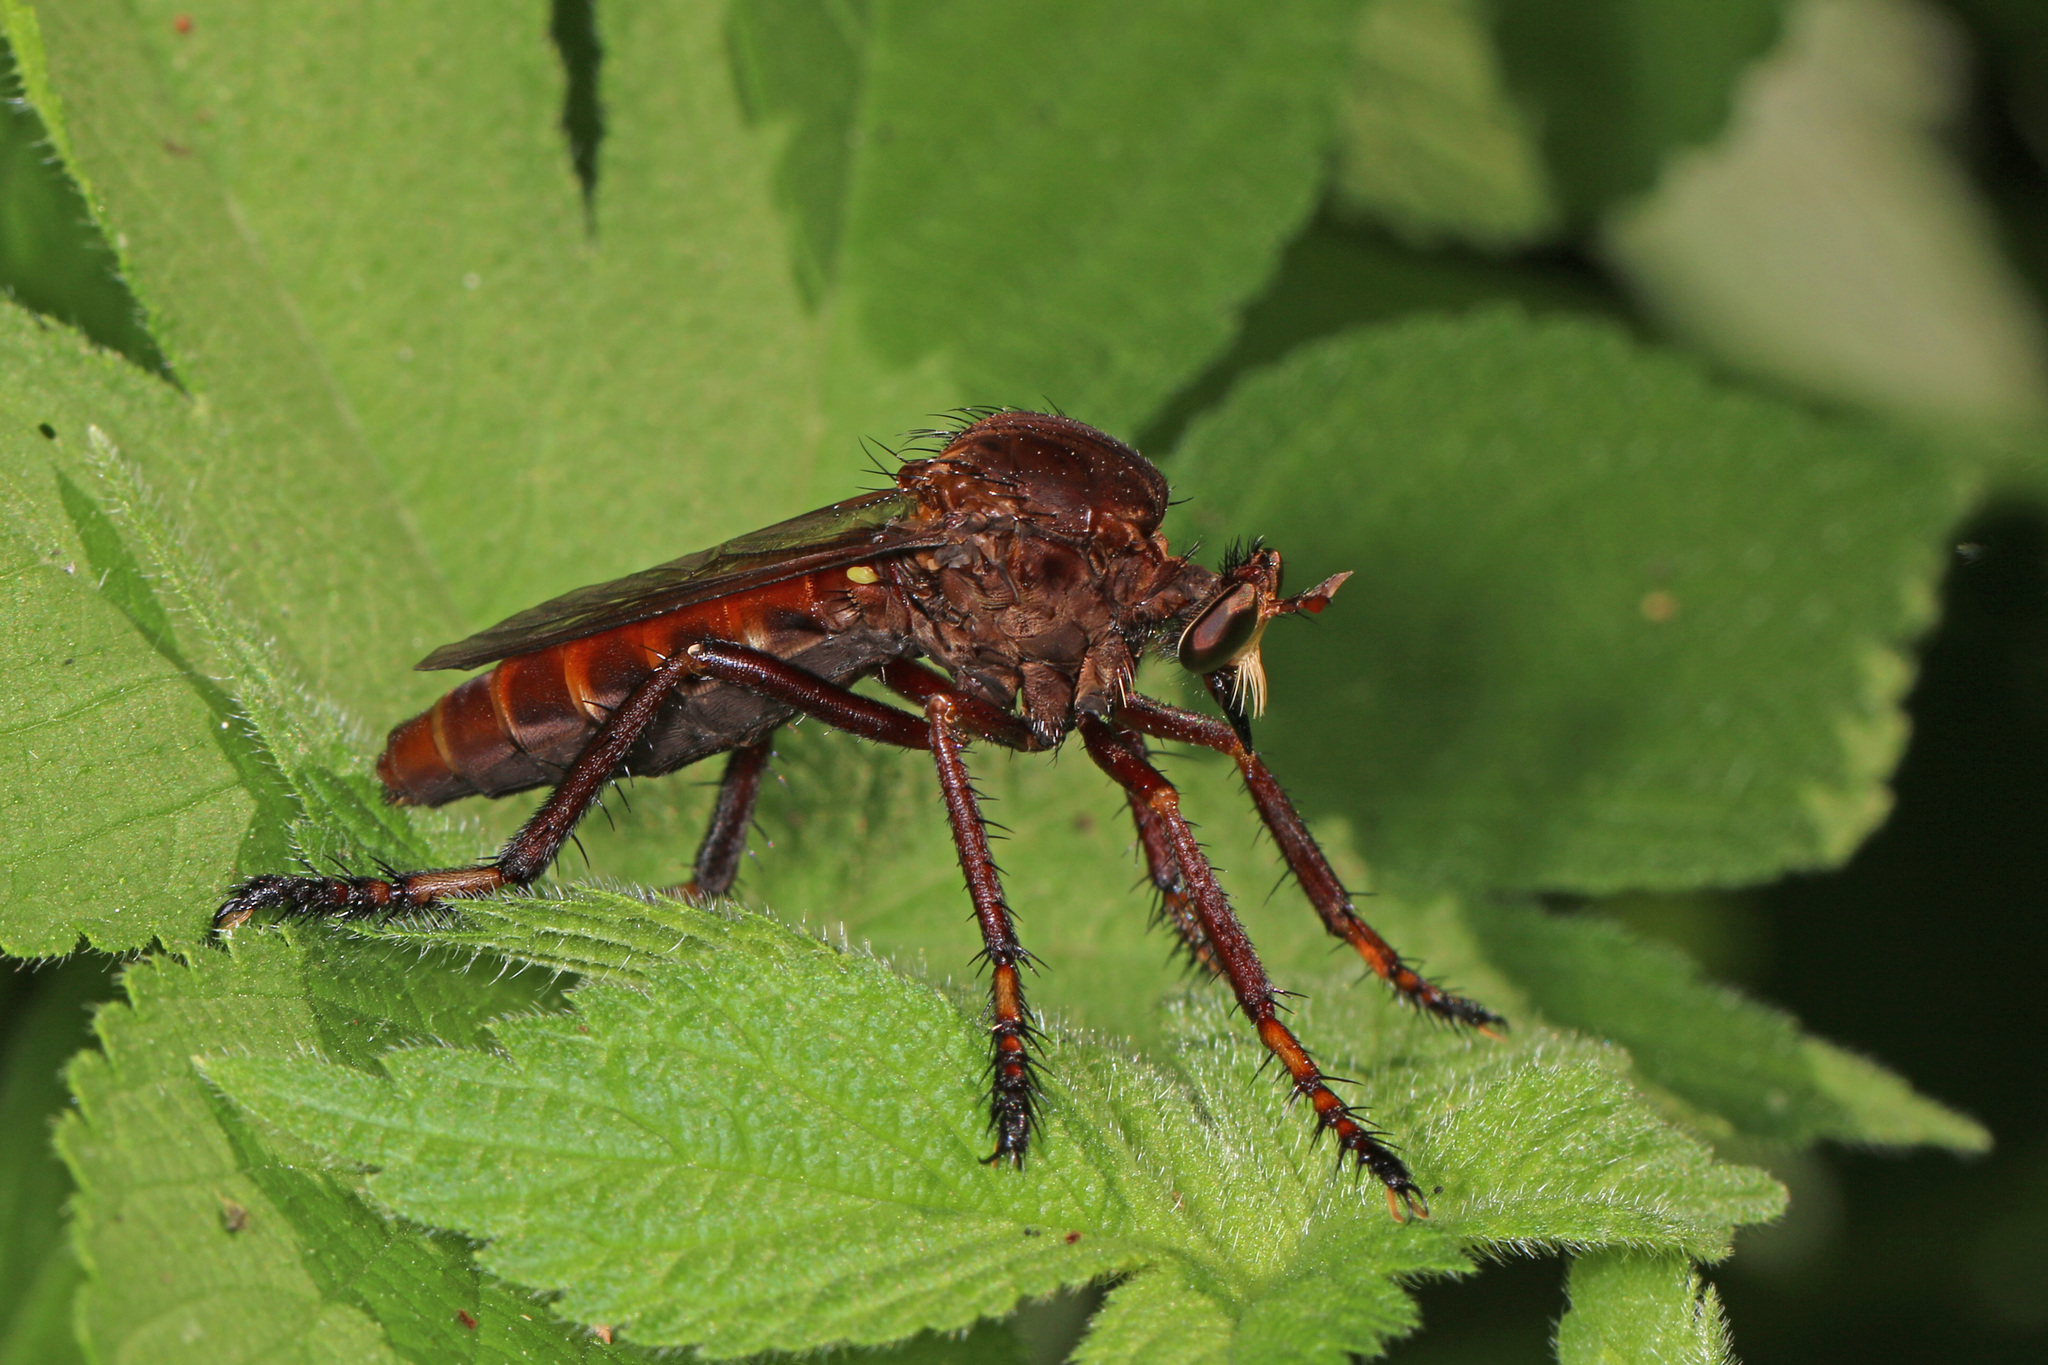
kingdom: Animalia
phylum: Arthropoda
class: Insecta
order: Diptera
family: Asilidae
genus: Diogmites
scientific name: Diogmites basalis
